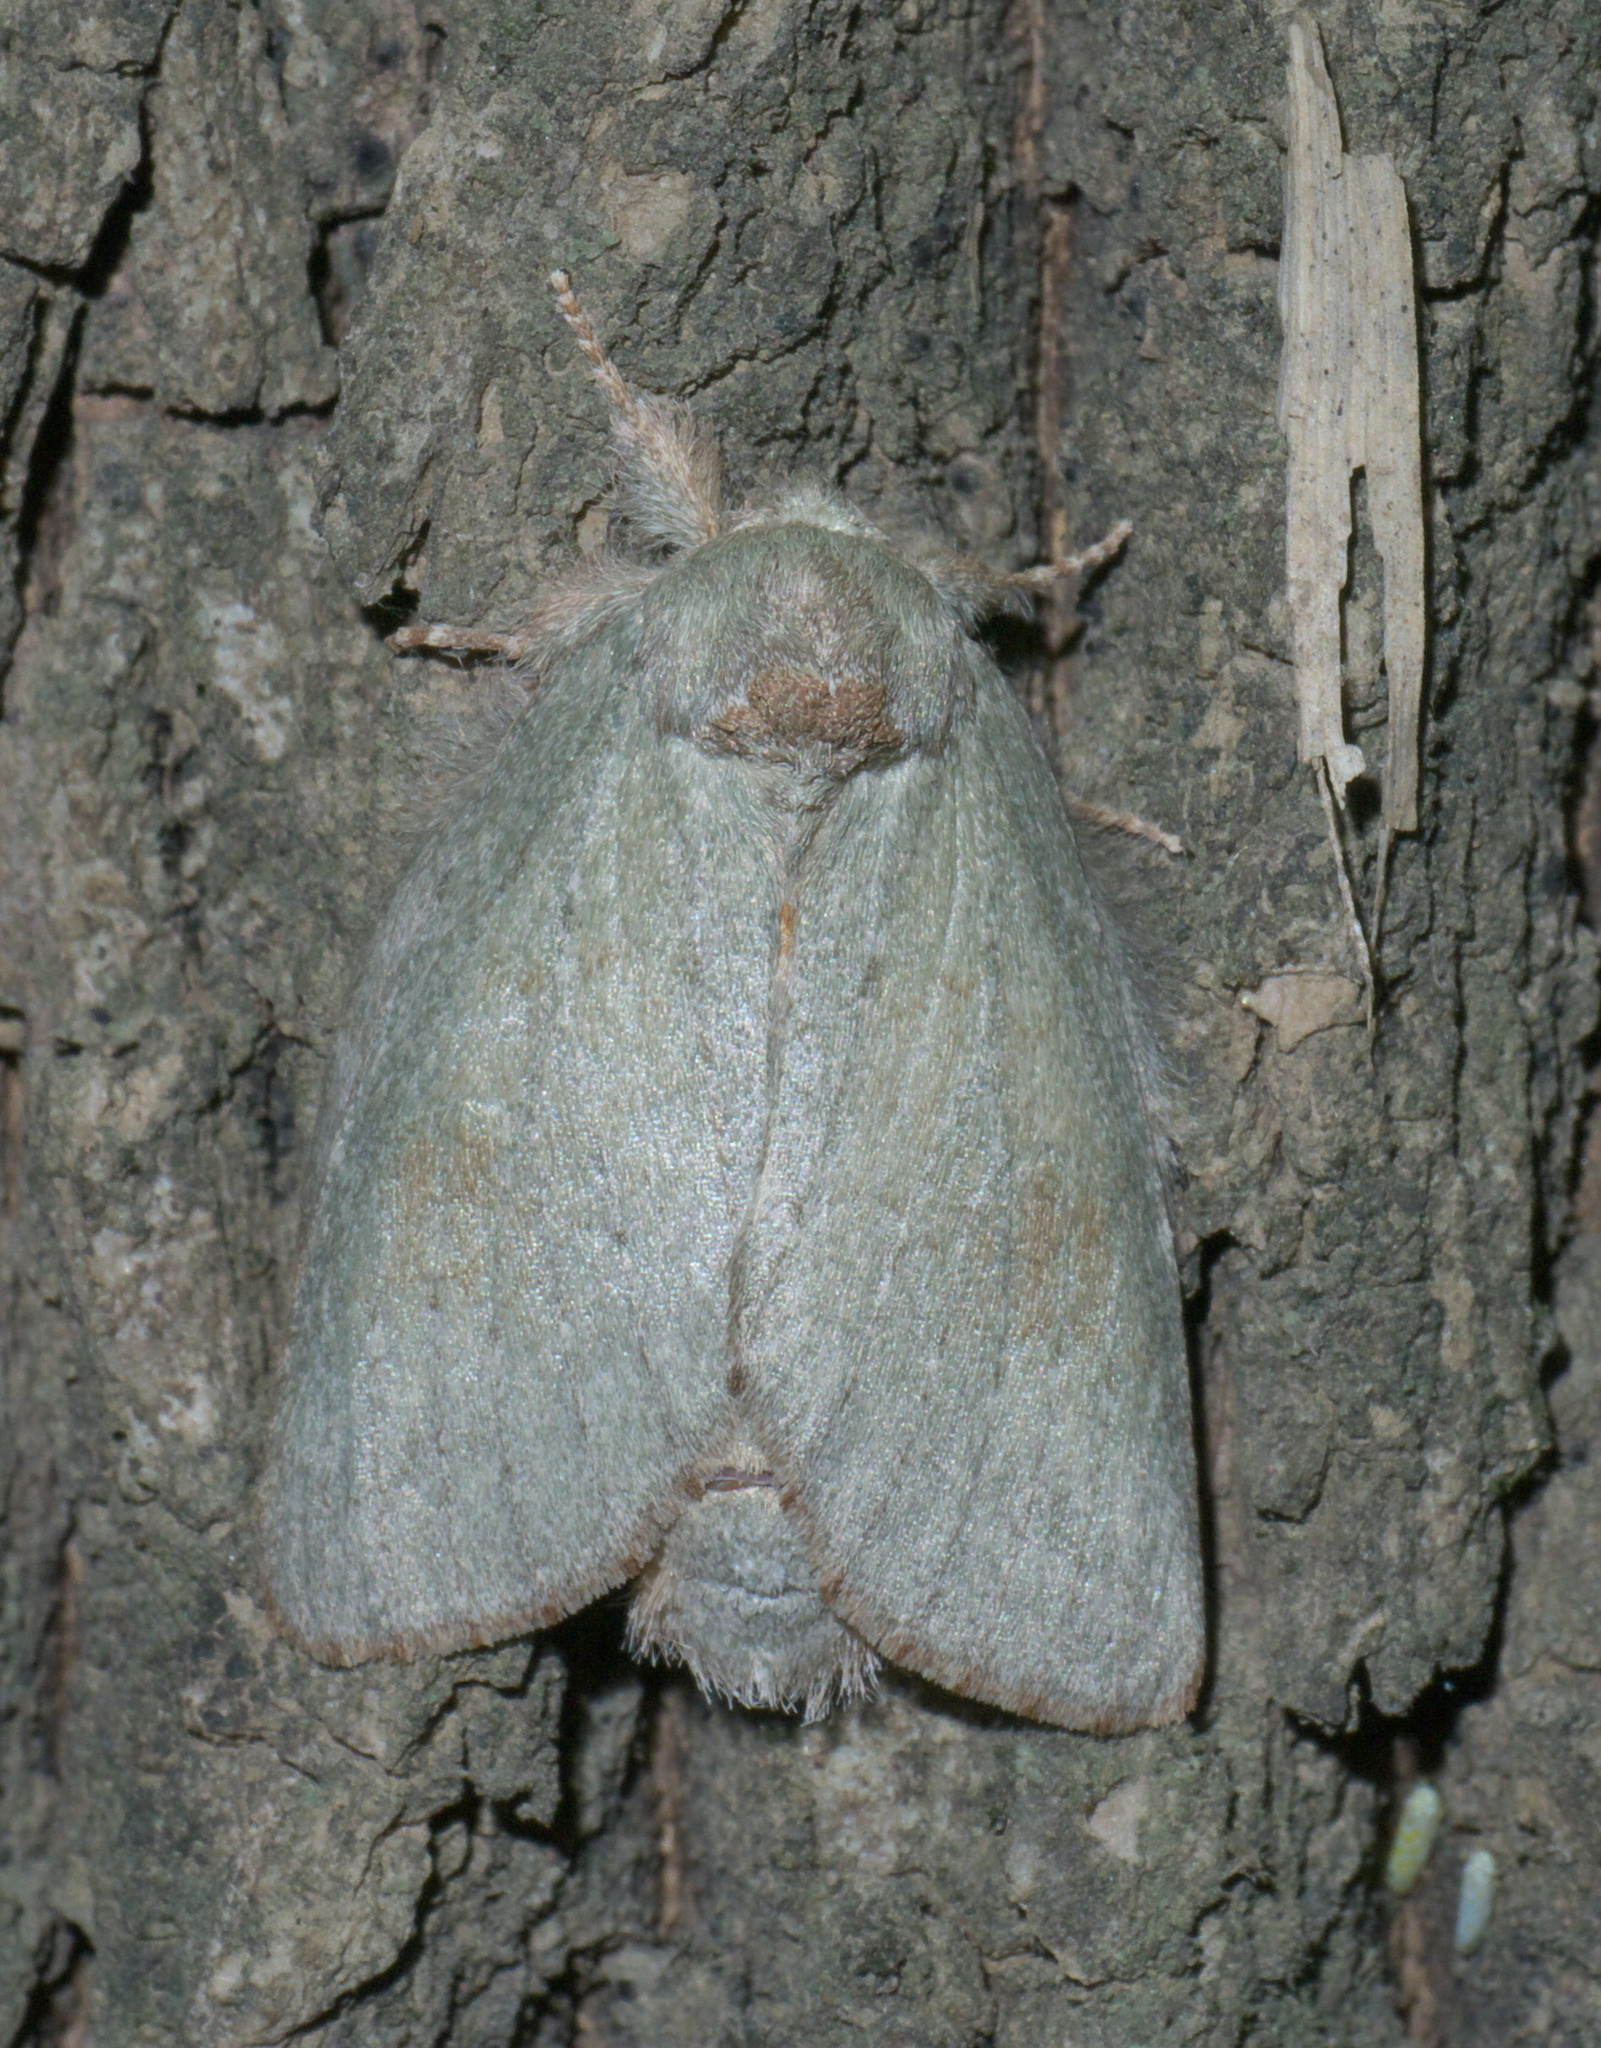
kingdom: Animalia
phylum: Arthropoda
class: Insecta
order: Lepidoptera
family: Notodontidae
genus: Misogada
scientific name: Misogada unicolor
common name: Drab prominent
